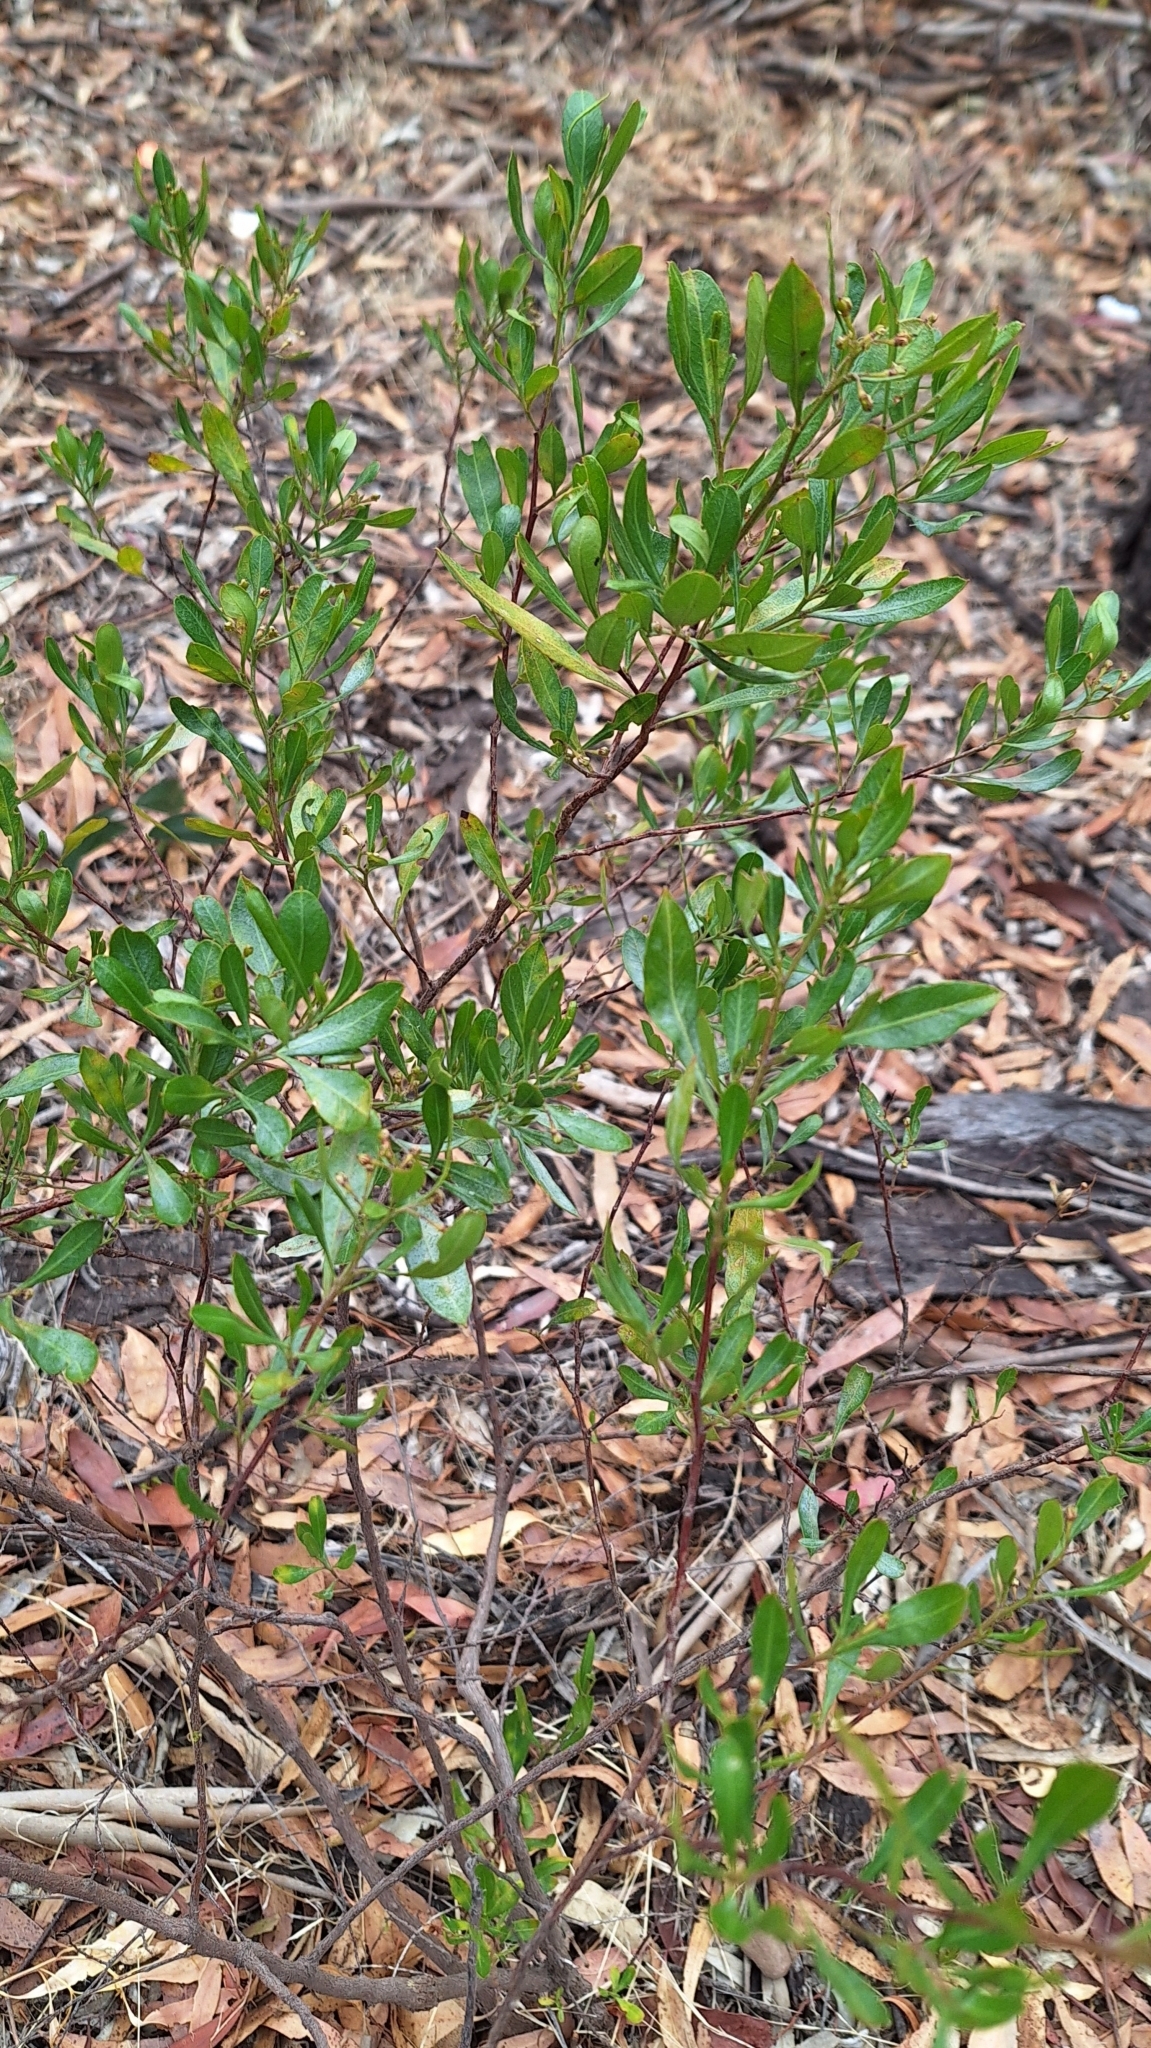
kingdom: Plantae
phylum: Tracheophyta
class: Magnoliopsida
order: Sapindales
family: Sapindaceae
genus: Dodonaea
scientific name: Dodonaea viscosa
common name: Hopbush
